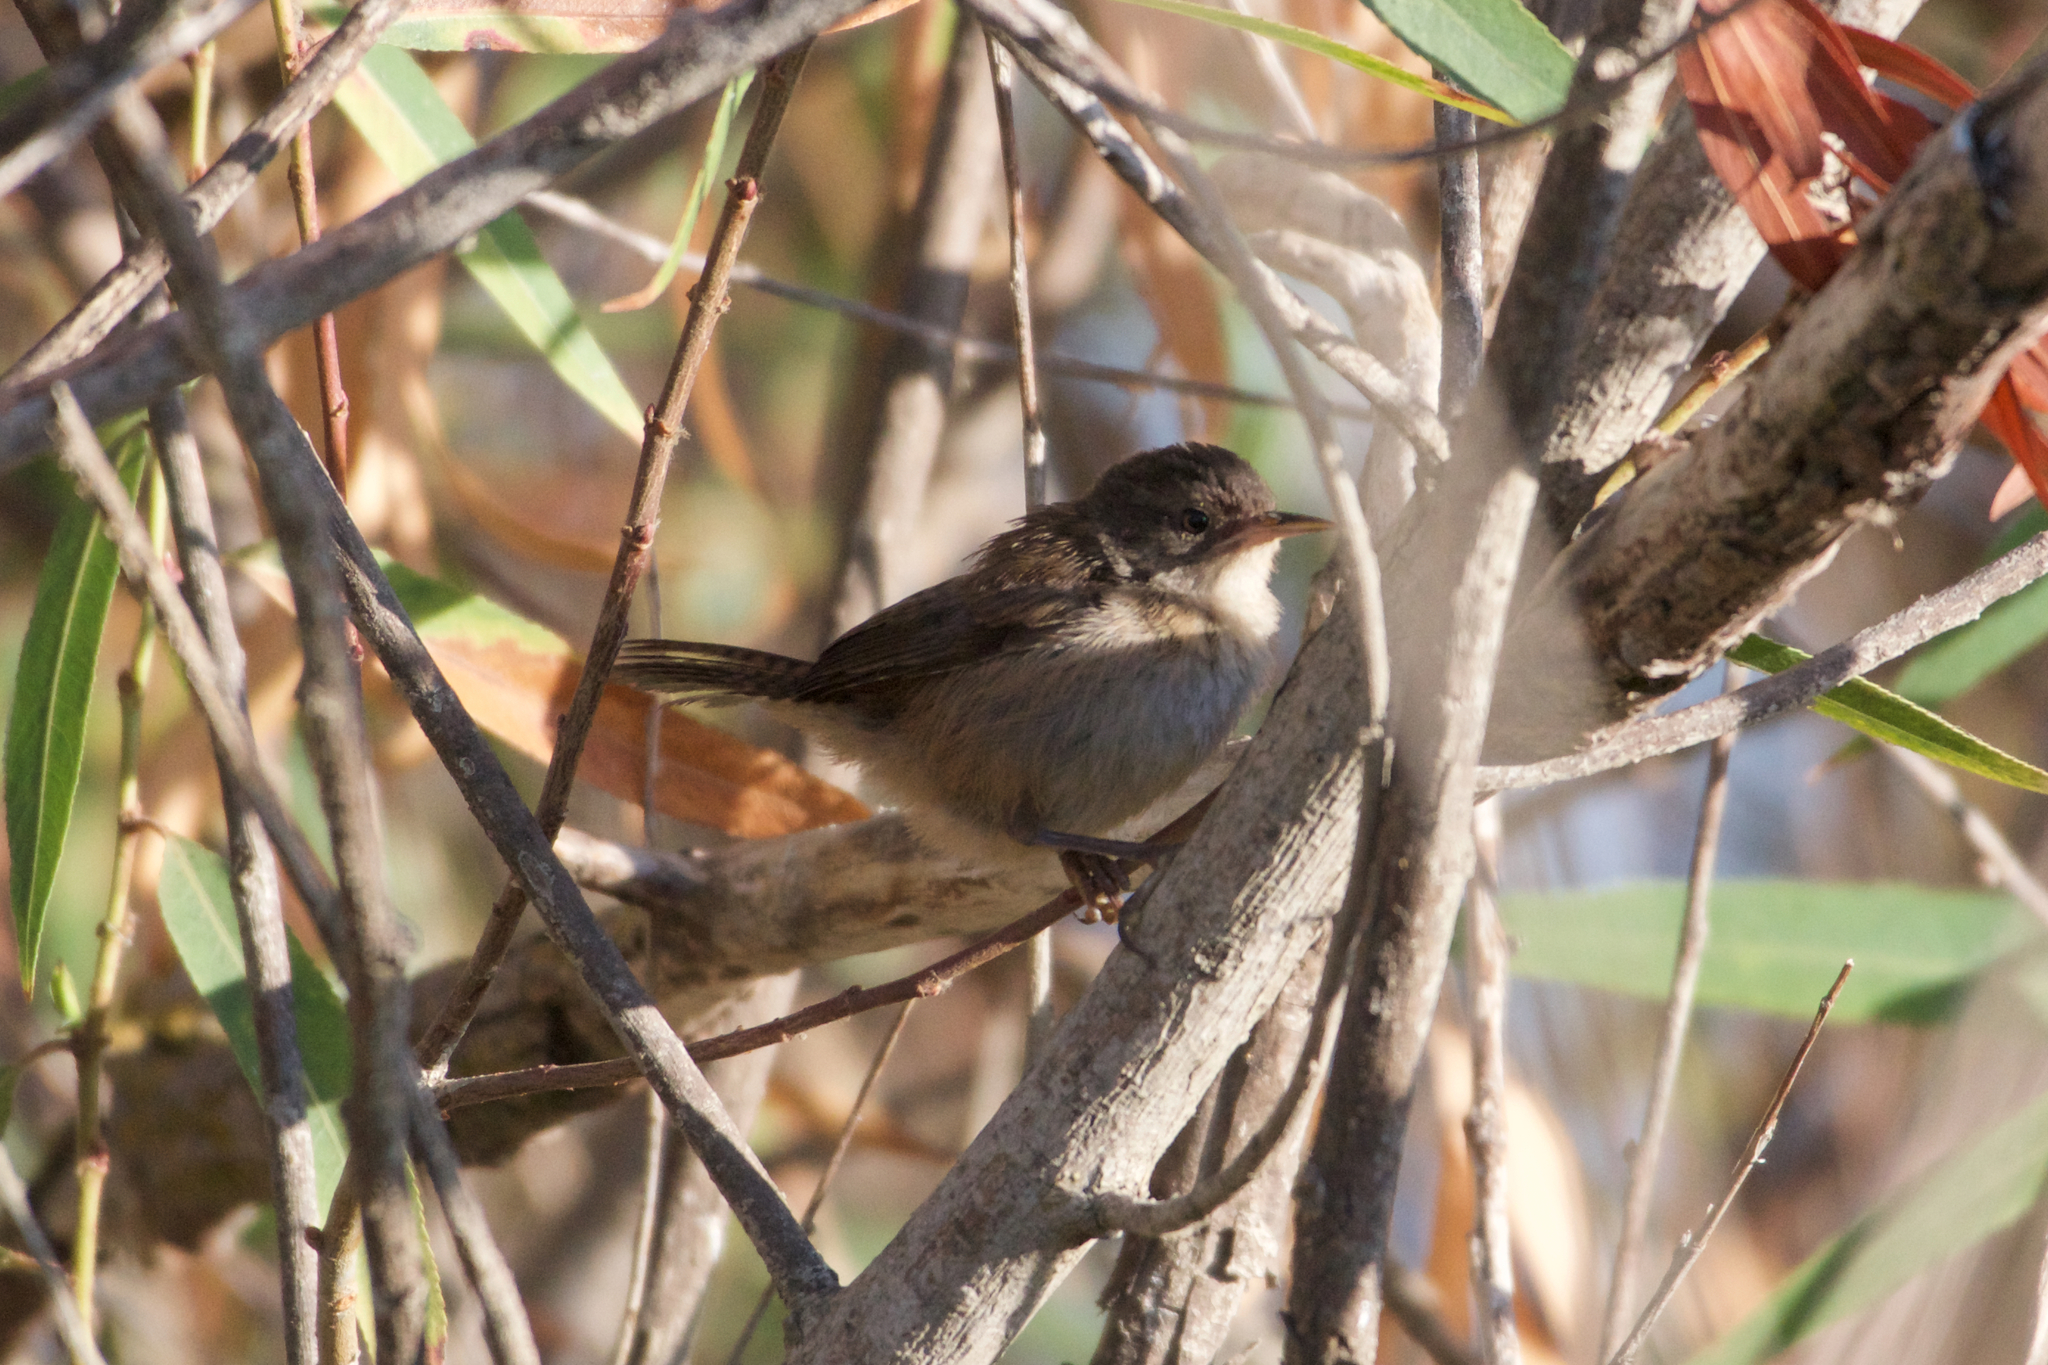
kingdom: Animalia
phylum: Chordata
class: Aves
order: Passeriformes
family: Troglodytidae
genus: Cistothorus
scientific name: Cistothorus palustris
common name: Marsh wren
